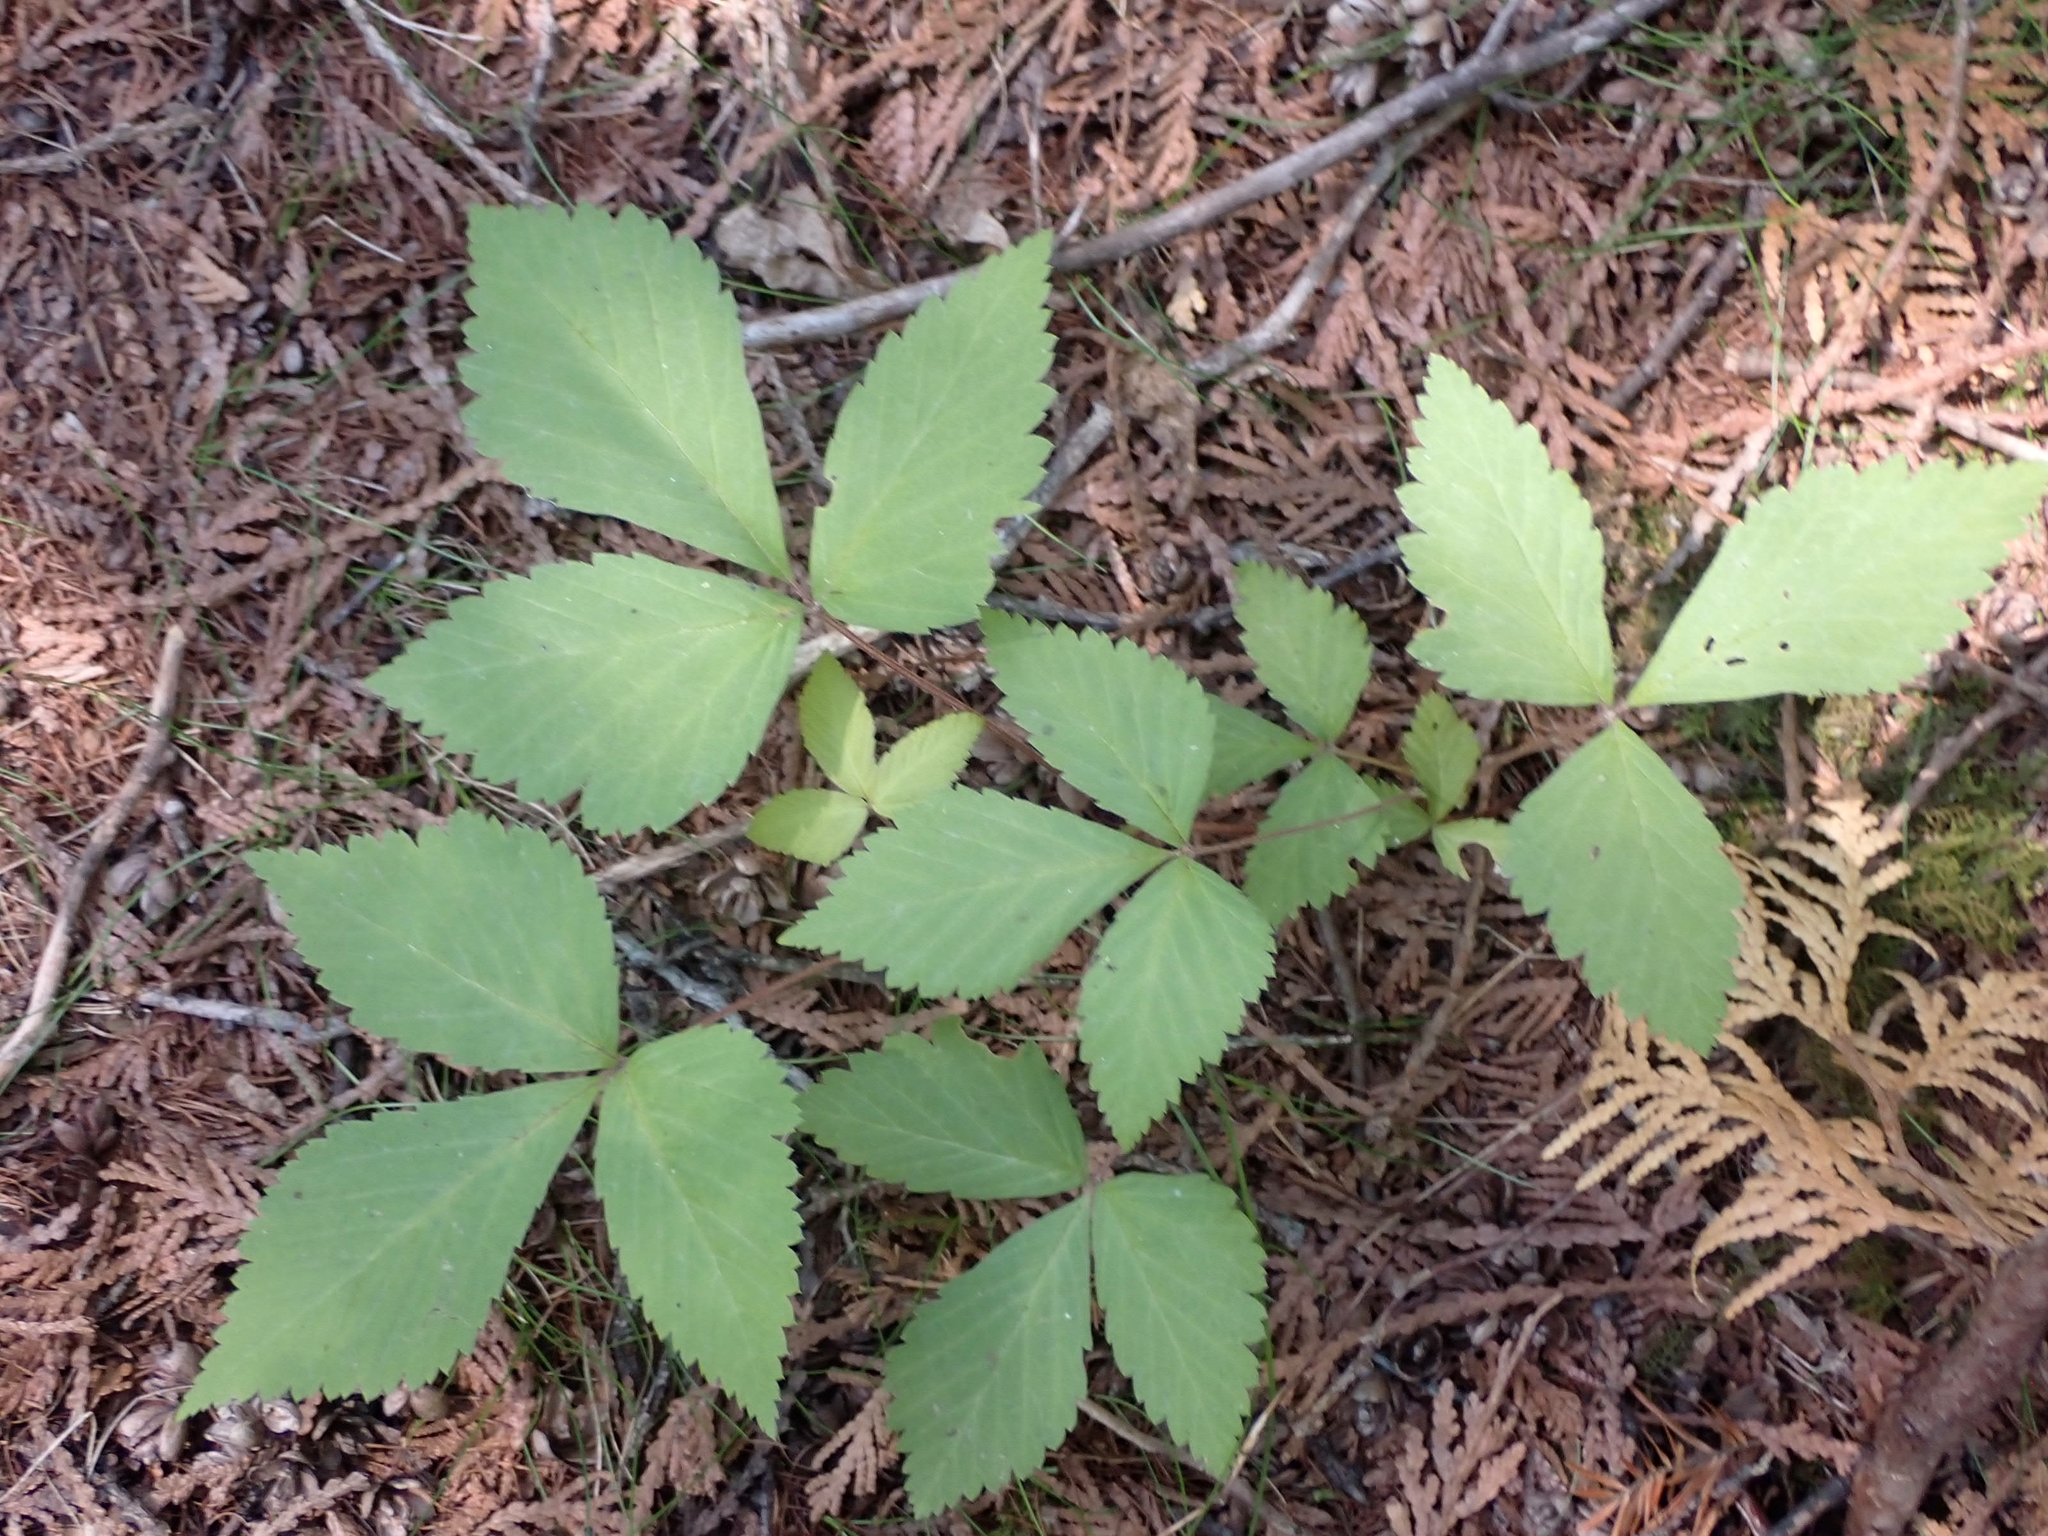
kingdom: Plantae
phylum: Tracheophyta
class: Magnoliopsida
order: Rosales
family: Rosaceae
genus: Rubus
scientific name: Rubus pubescens
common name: Dwarf raspberry
